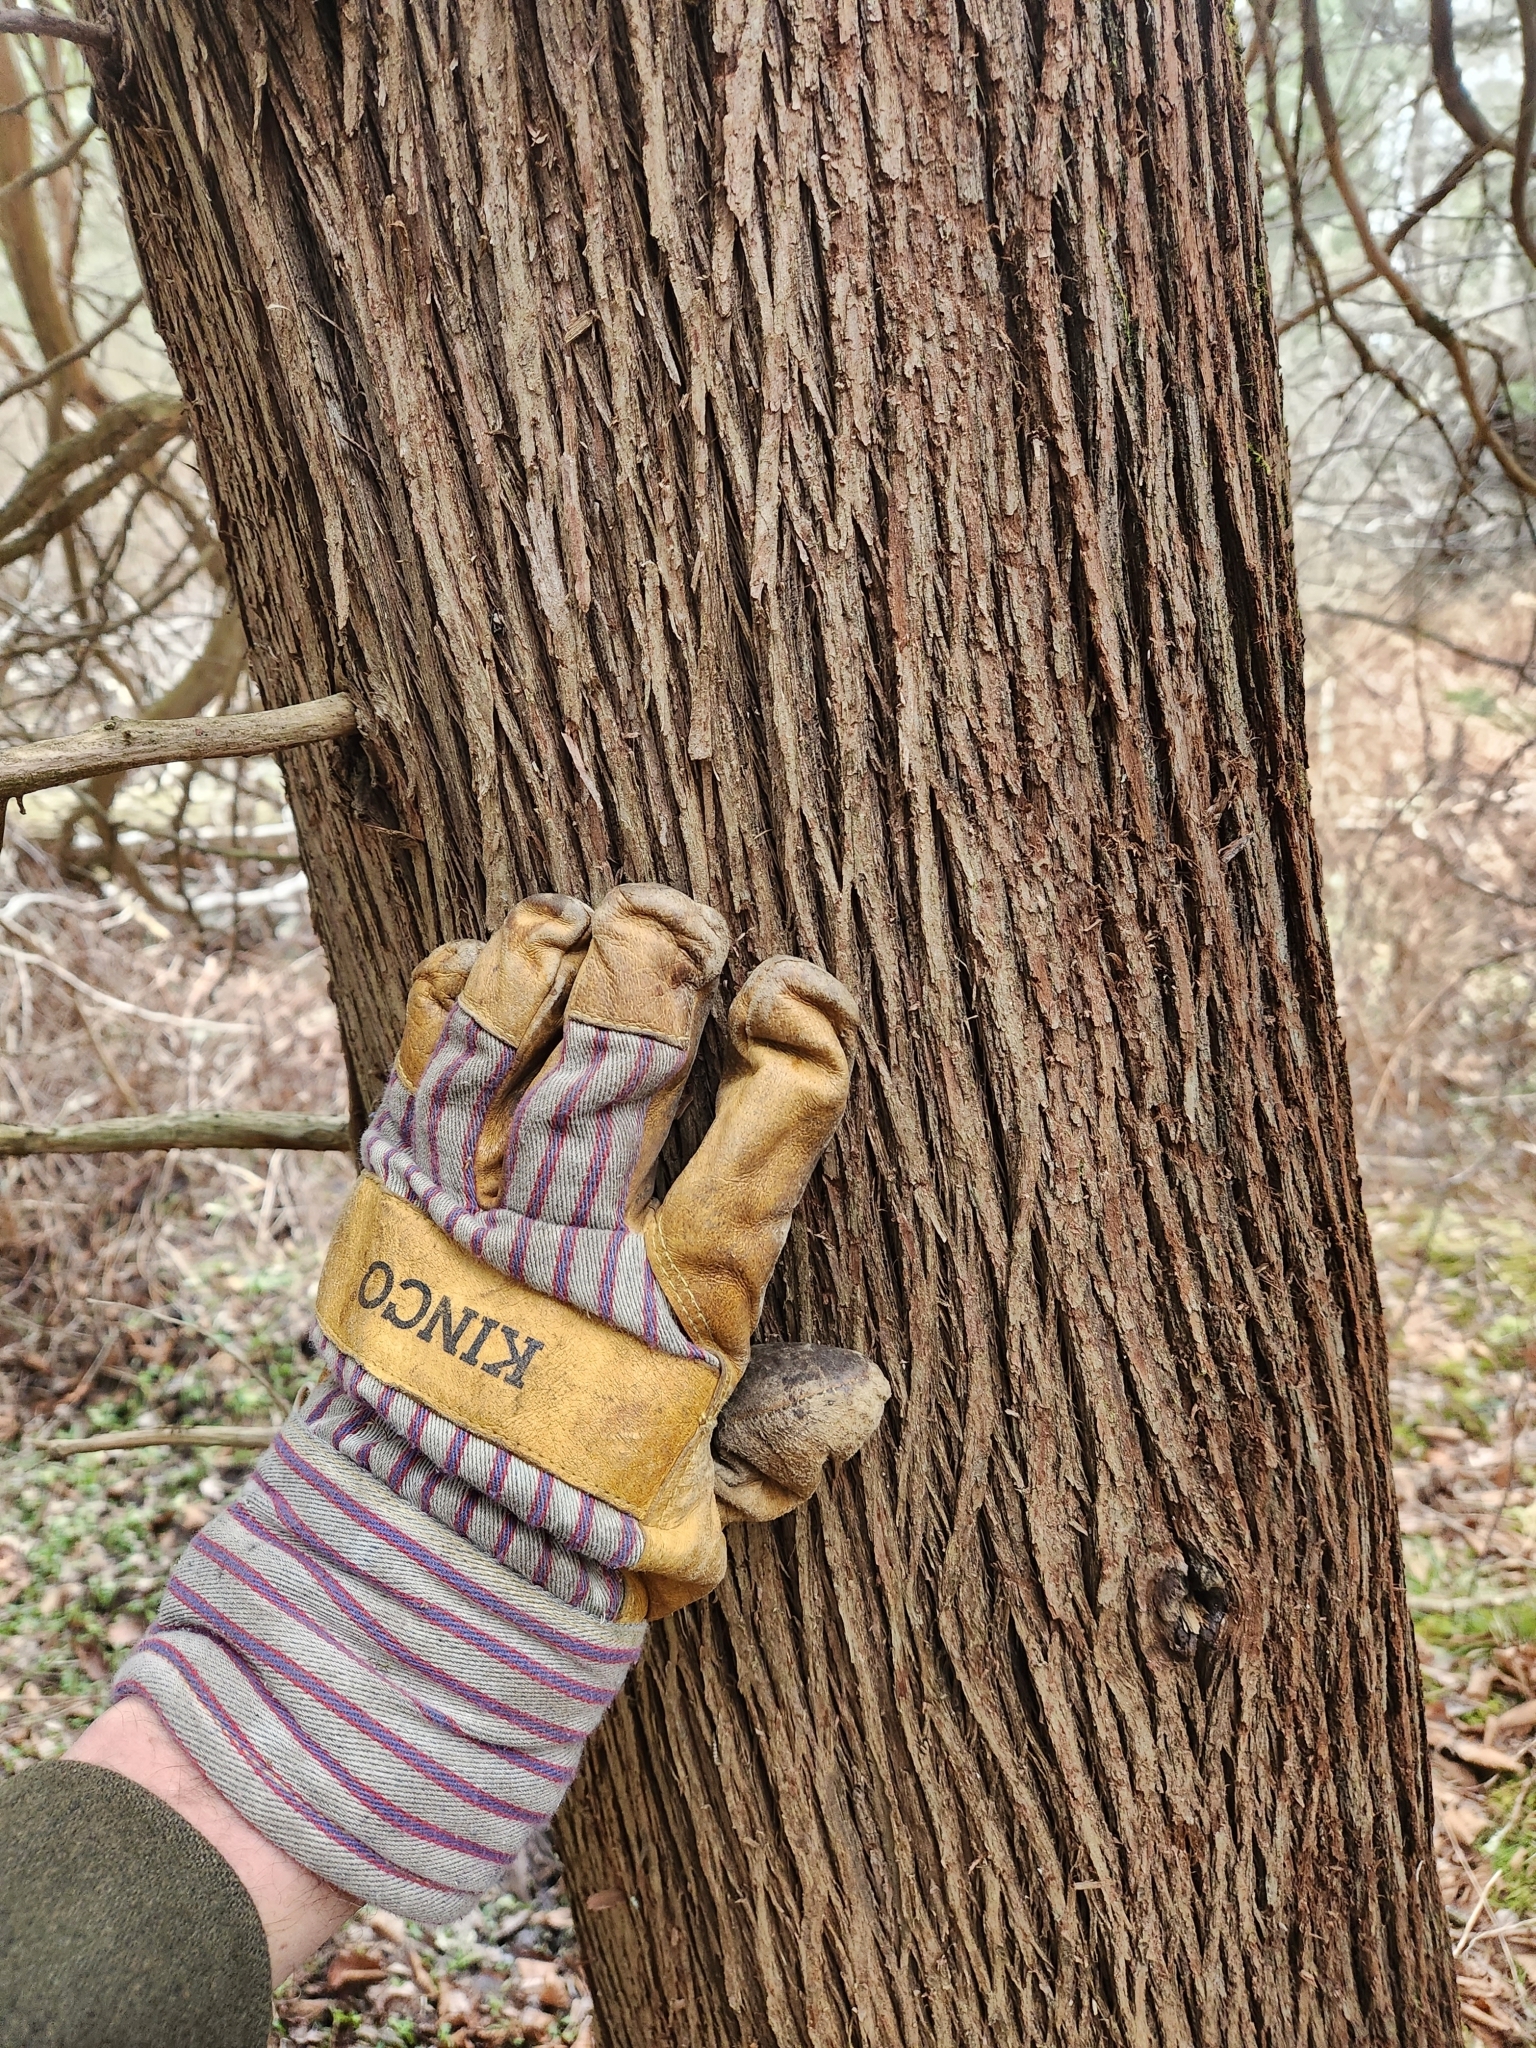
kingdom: Plantae
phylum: Tracheophyta
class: Pinopsida
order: Pinales
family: Cupressaceae
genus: Thuja
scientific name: Thuja occidentalis
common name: Northern white-cedar
